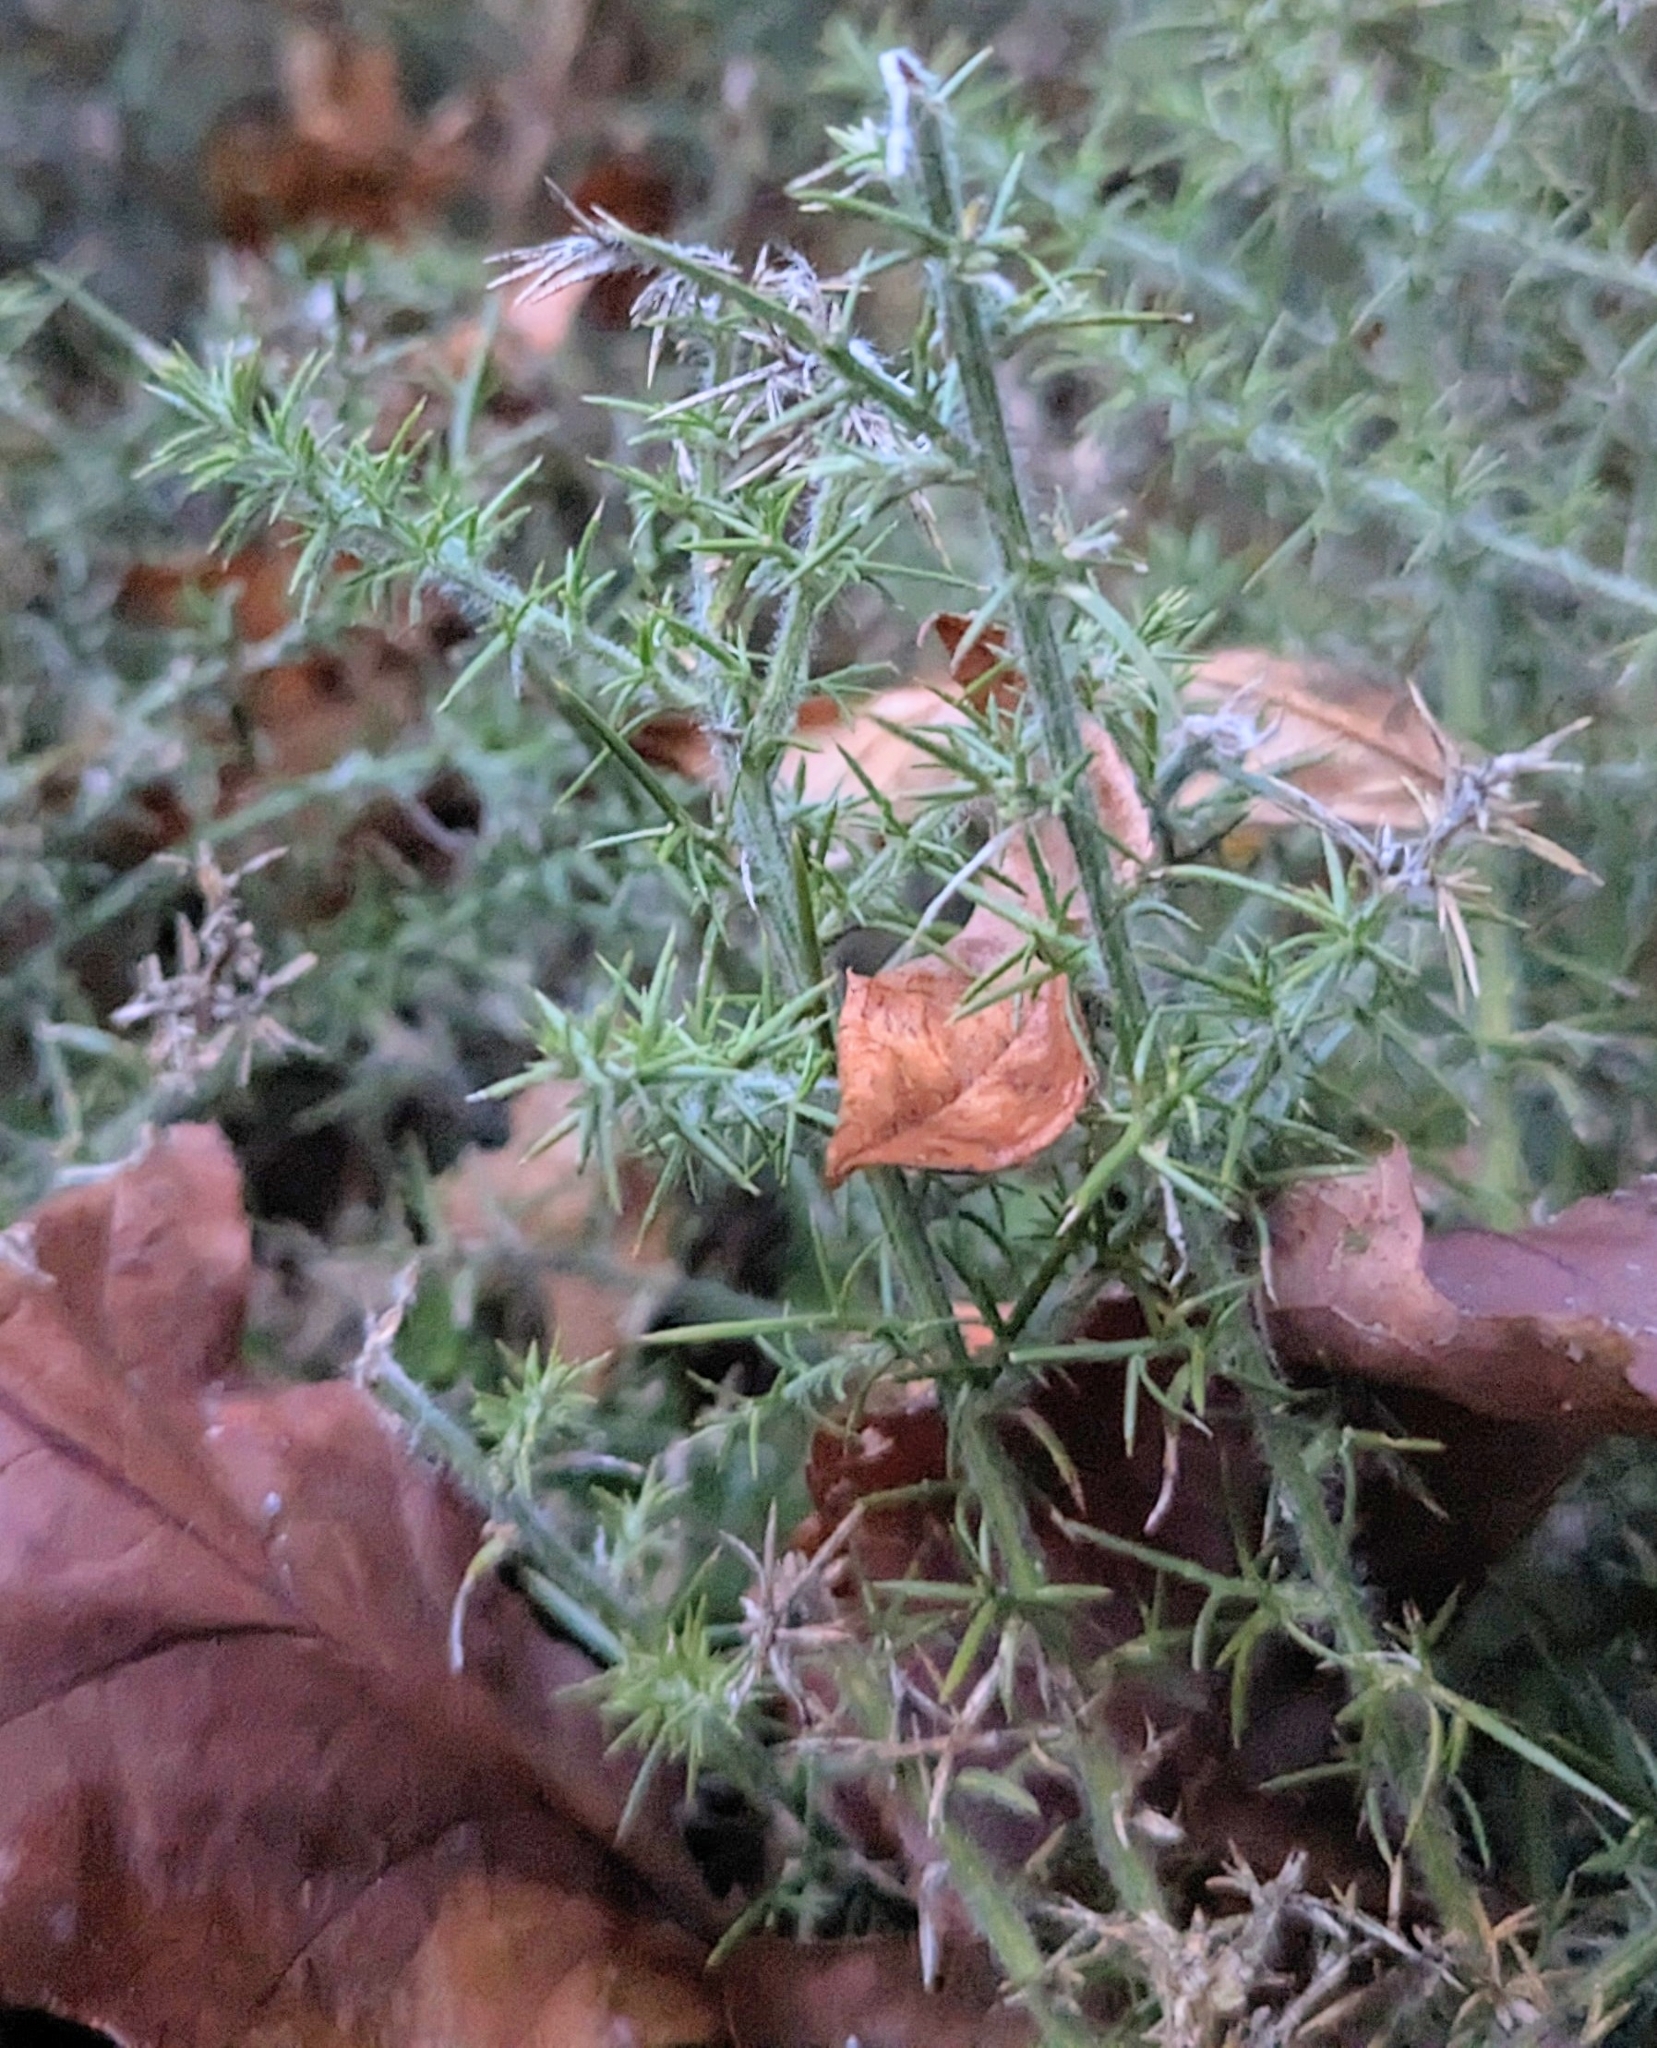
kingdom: Plantae
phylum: Tracheophyta
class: Magnoliopsida
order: Fabales
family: Fabaceae
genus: Ulex
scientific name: Ulex europaeus
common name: Common gorse
